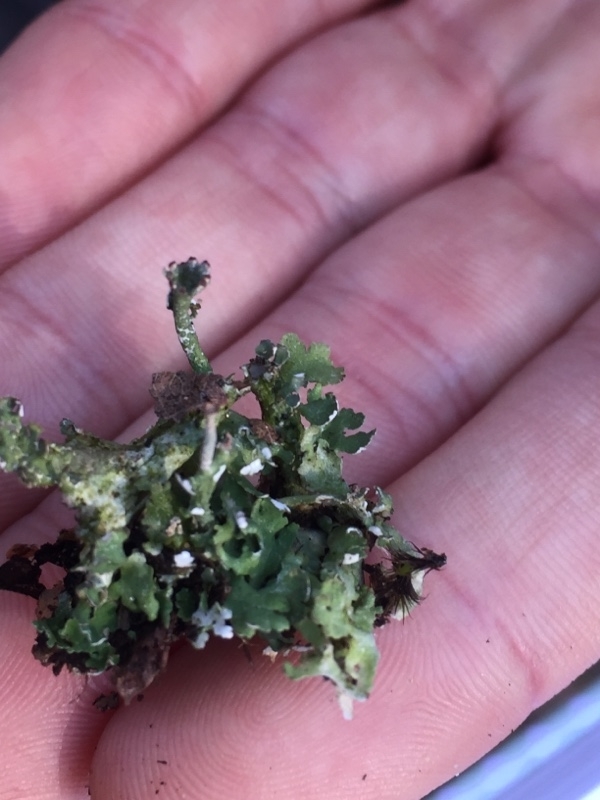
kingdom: Fungi
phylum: Ascomycota
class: Lecanoromycetes
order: Lecanorales
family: Cladoniaceae
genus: Cladonia
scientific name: Cladonia foliacea
